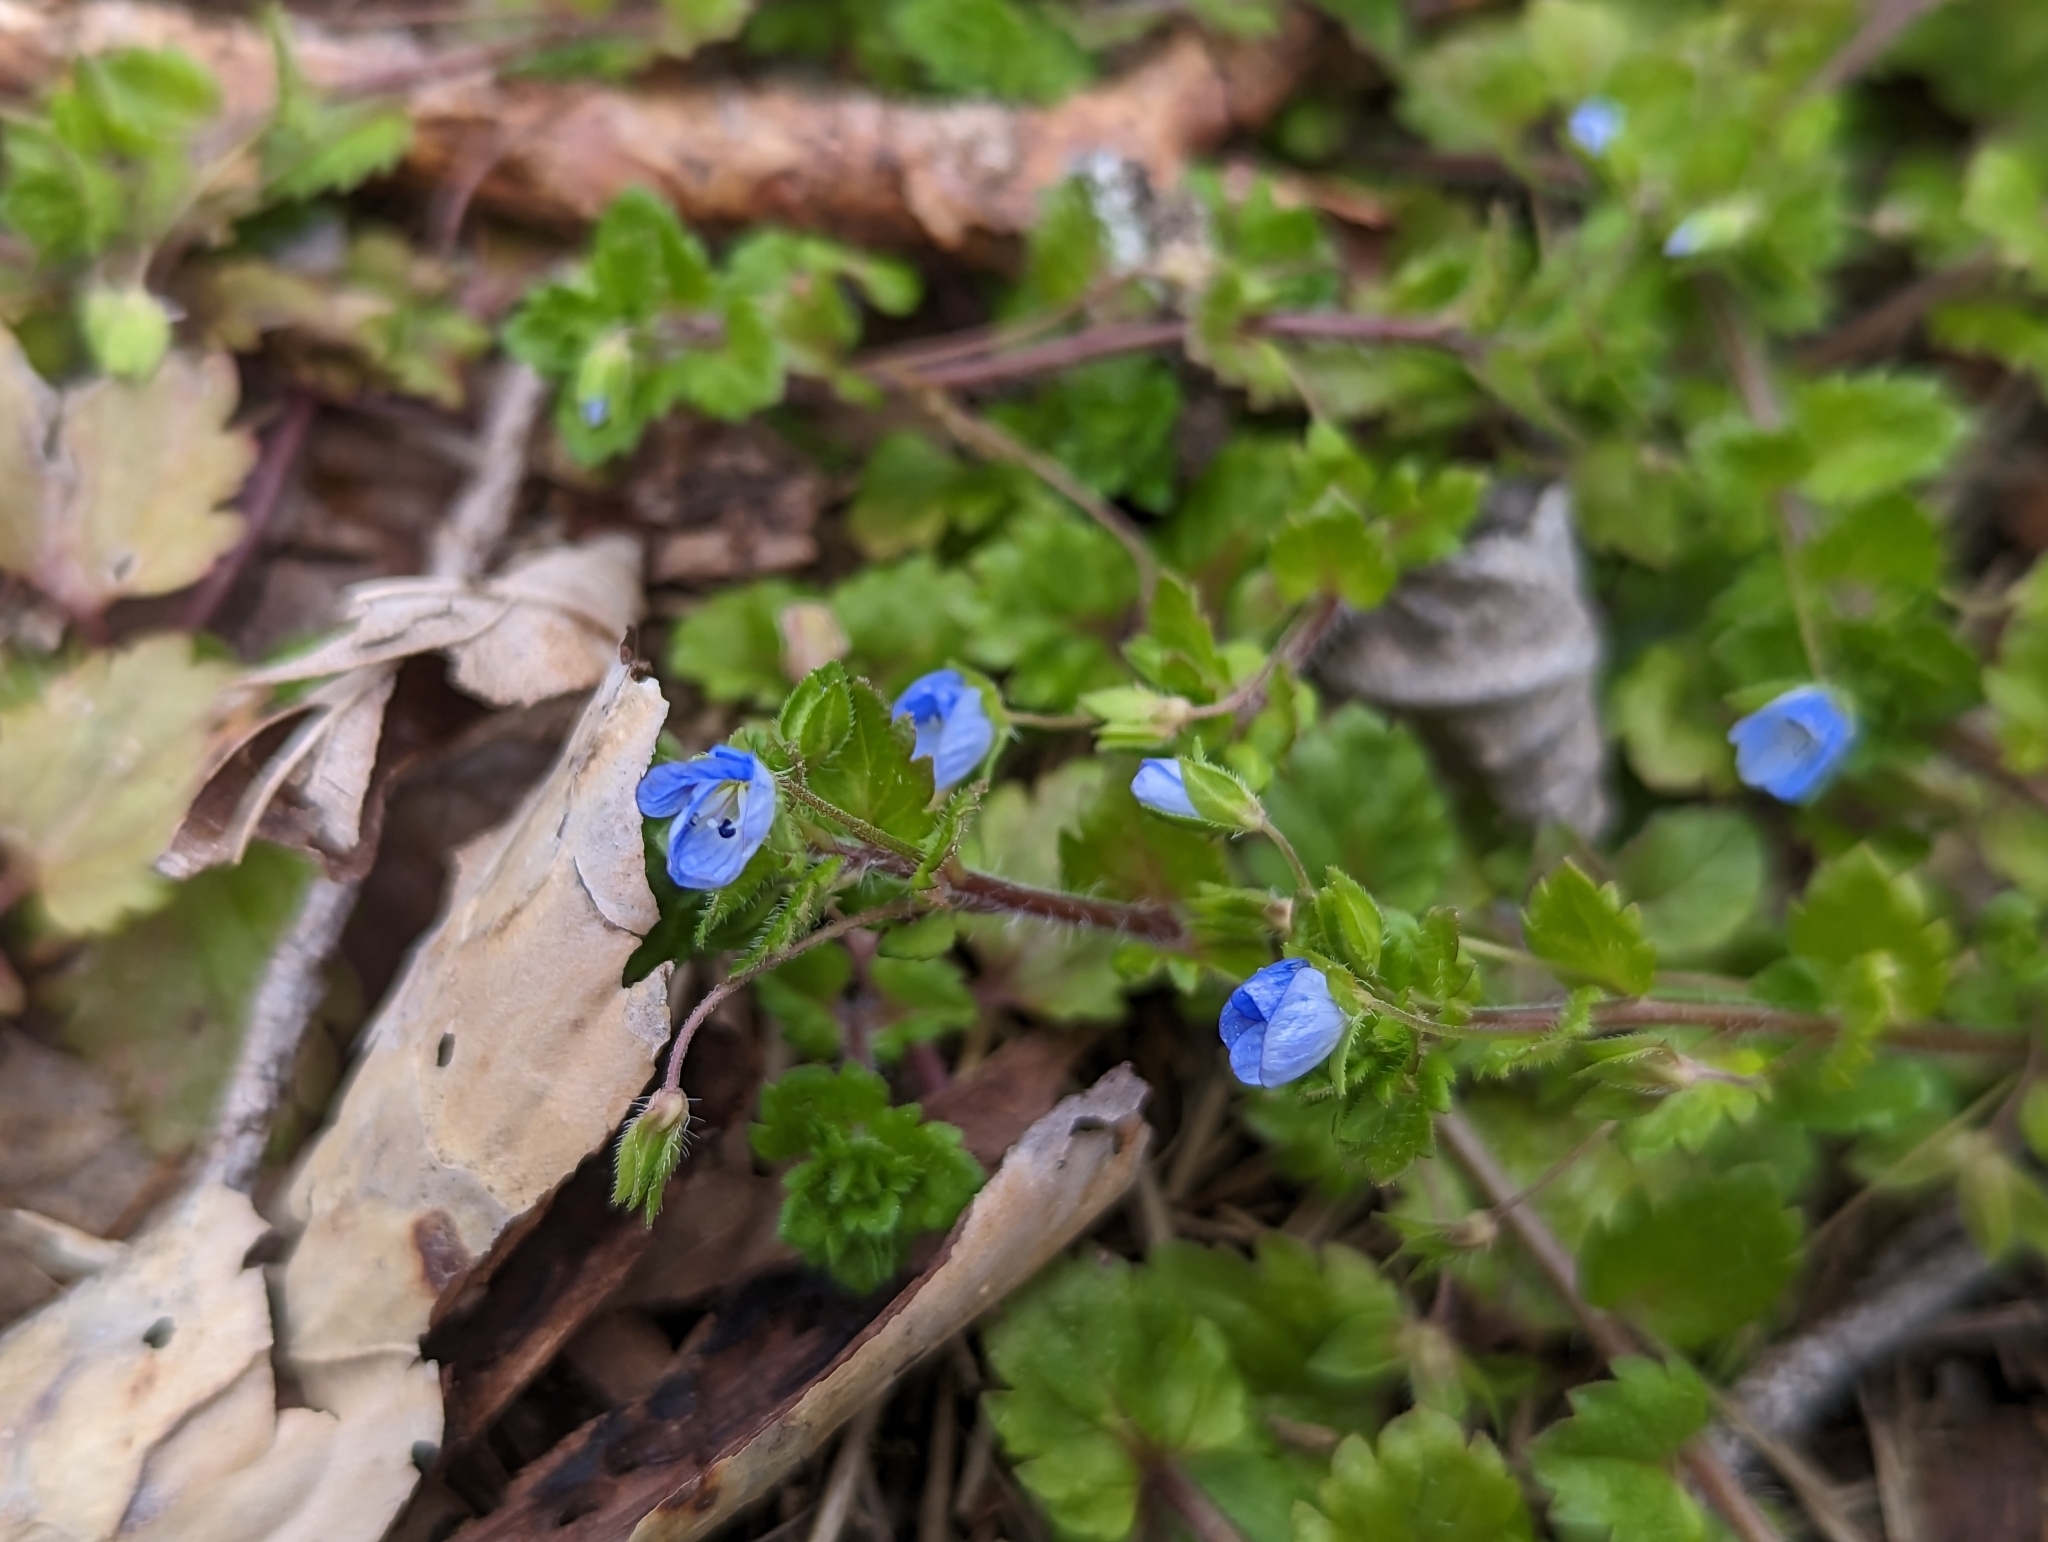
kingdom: Plantae
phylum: Tracheophyta
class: Magnoliopsida
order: Lamiales
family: Plantaginaceae
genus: Veronica
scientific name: Veronica persica
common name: Common field-speedwell
